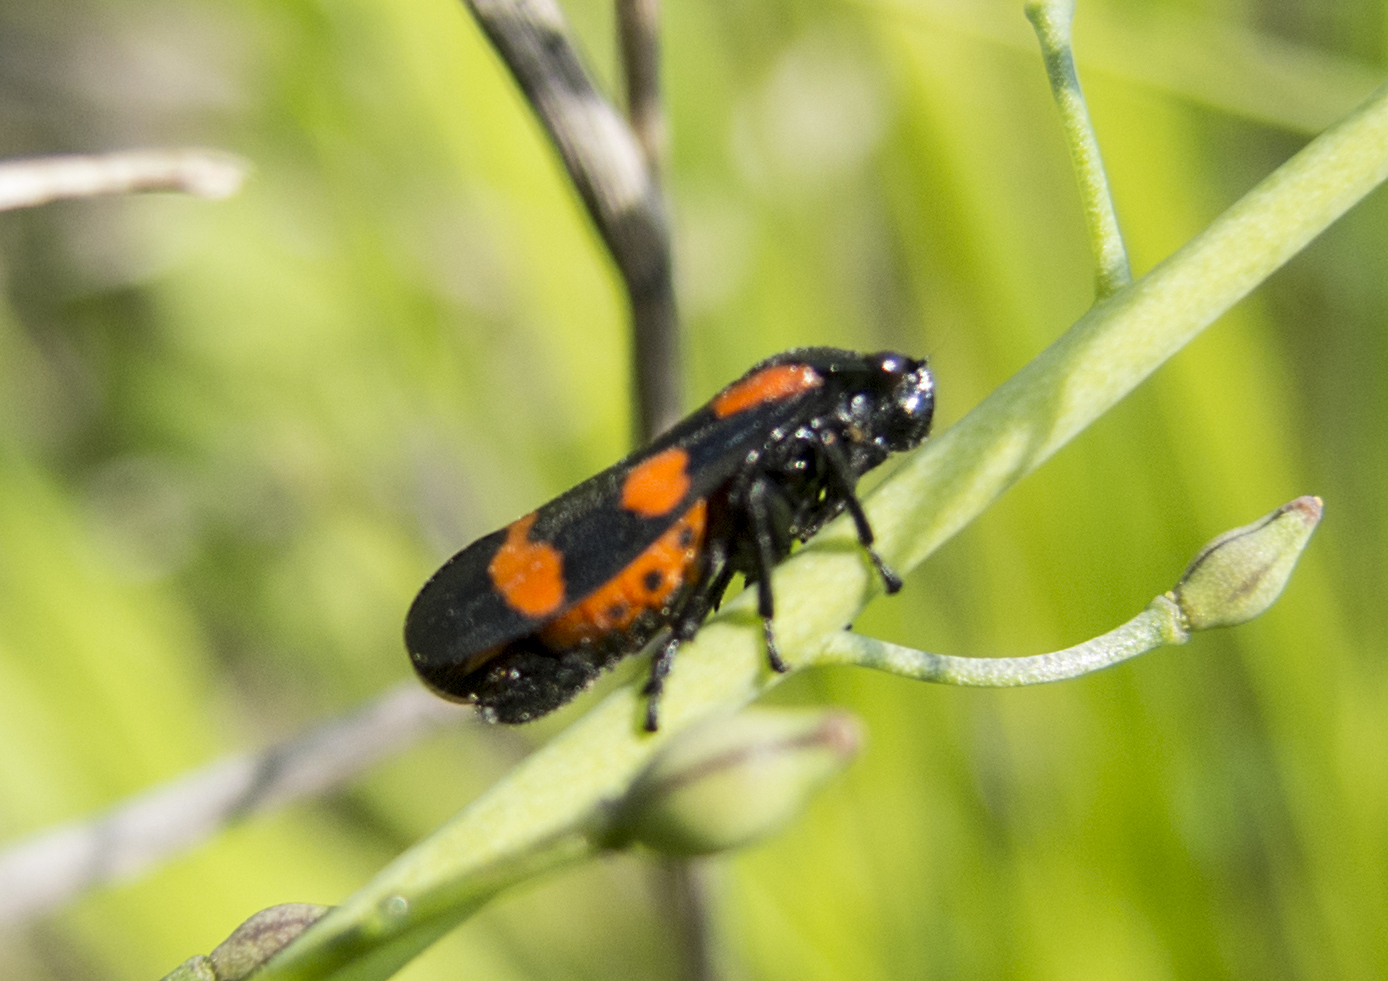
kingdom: Animalia
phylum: Arthropoda
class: Insecta
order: Hemiptera
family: Cercopidae
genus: Cercopis
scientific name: Cercopis sanguinolenta
